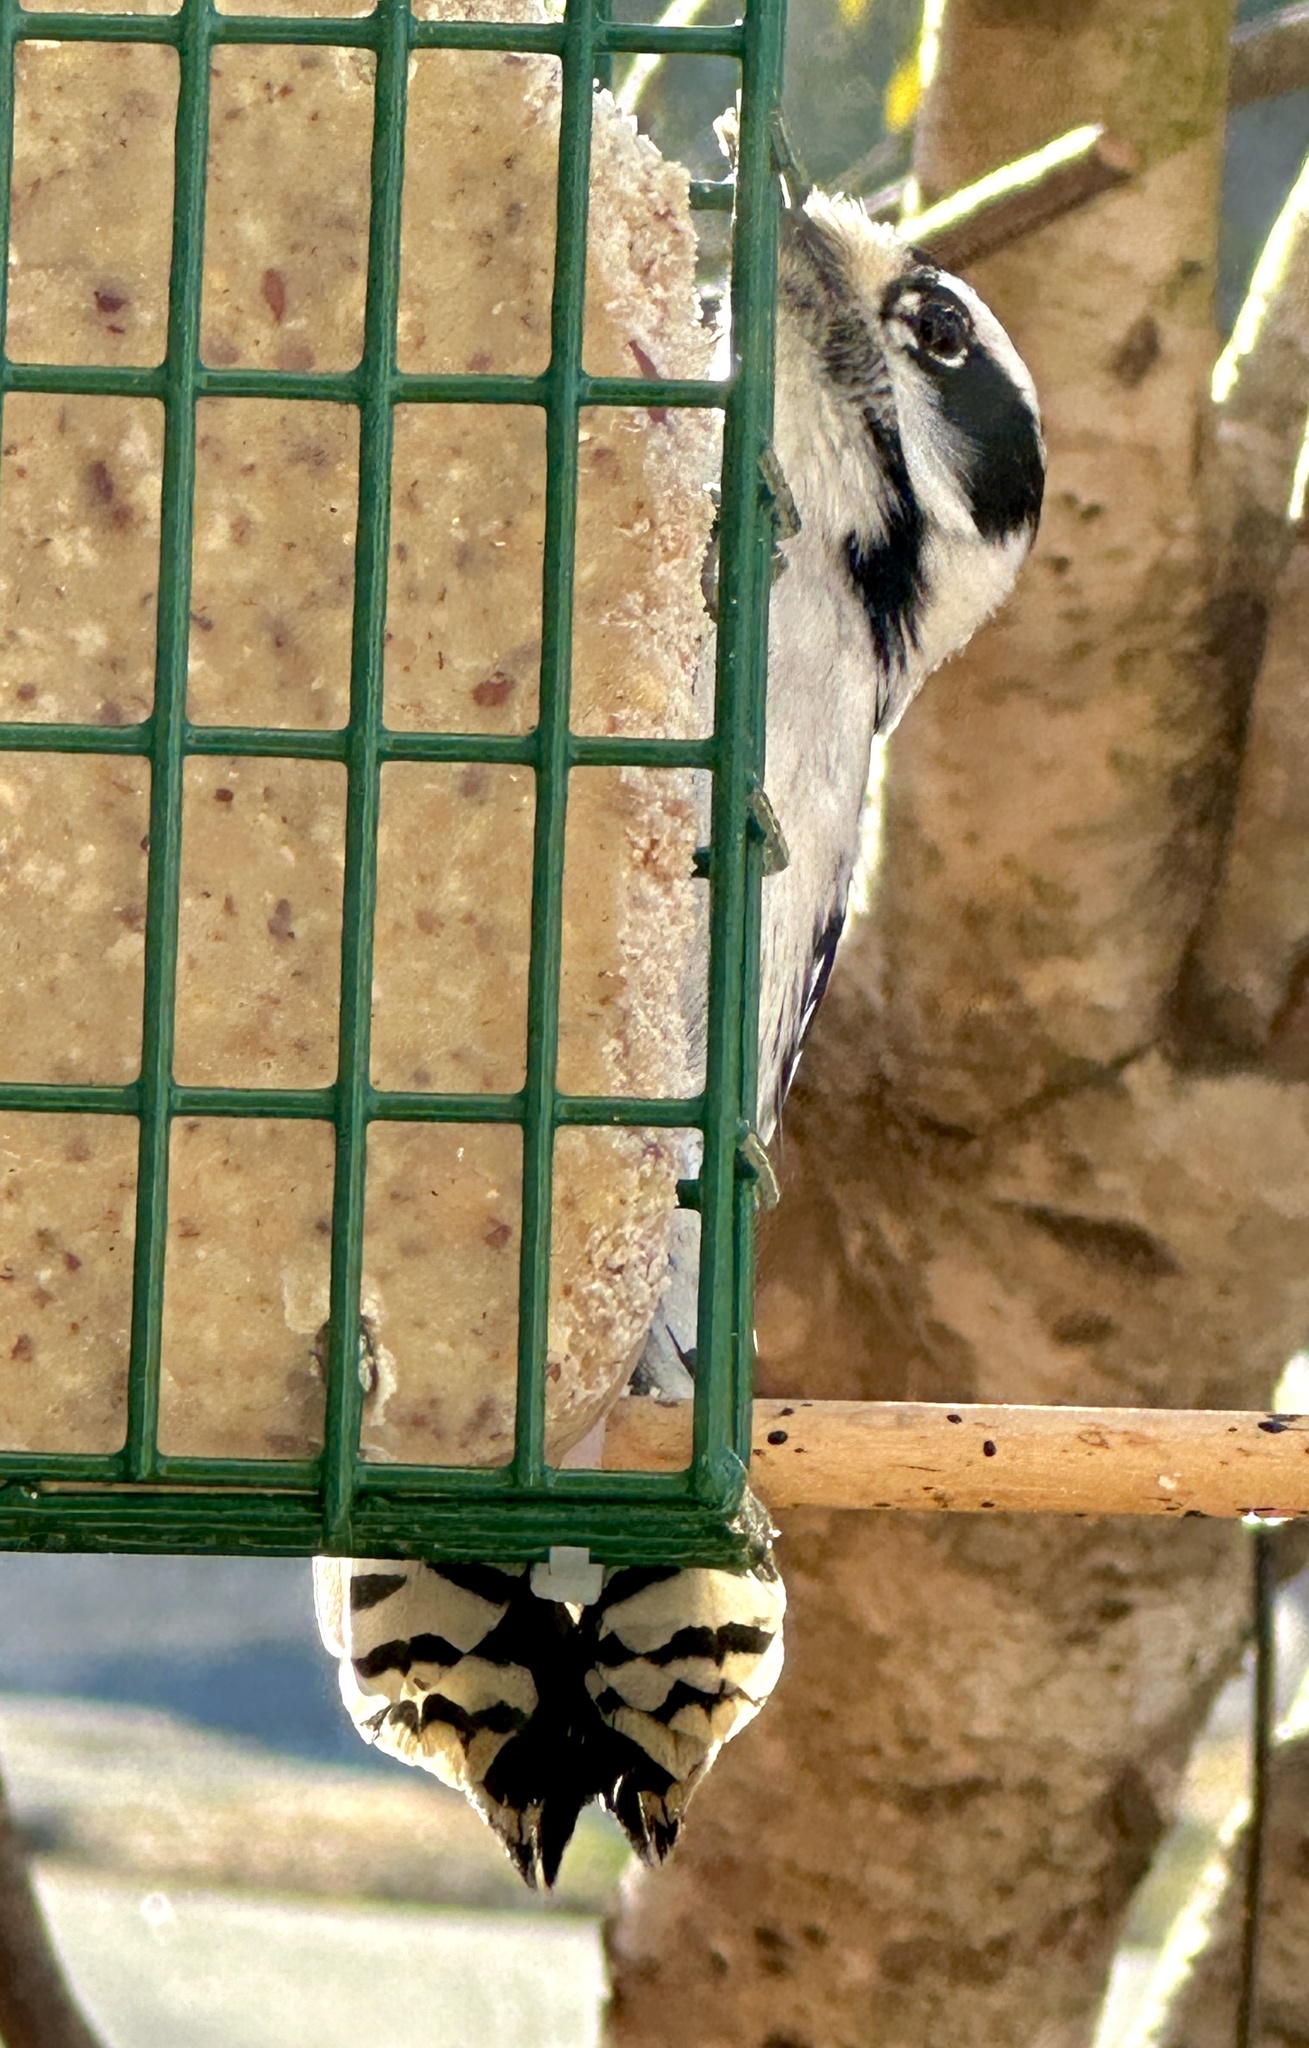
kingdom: Animalia
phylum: Chordata
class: Aves
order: Piciformes
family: Picidae
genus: Dryobates
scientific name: Dryobates pubescens
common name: Downy woodpecker
